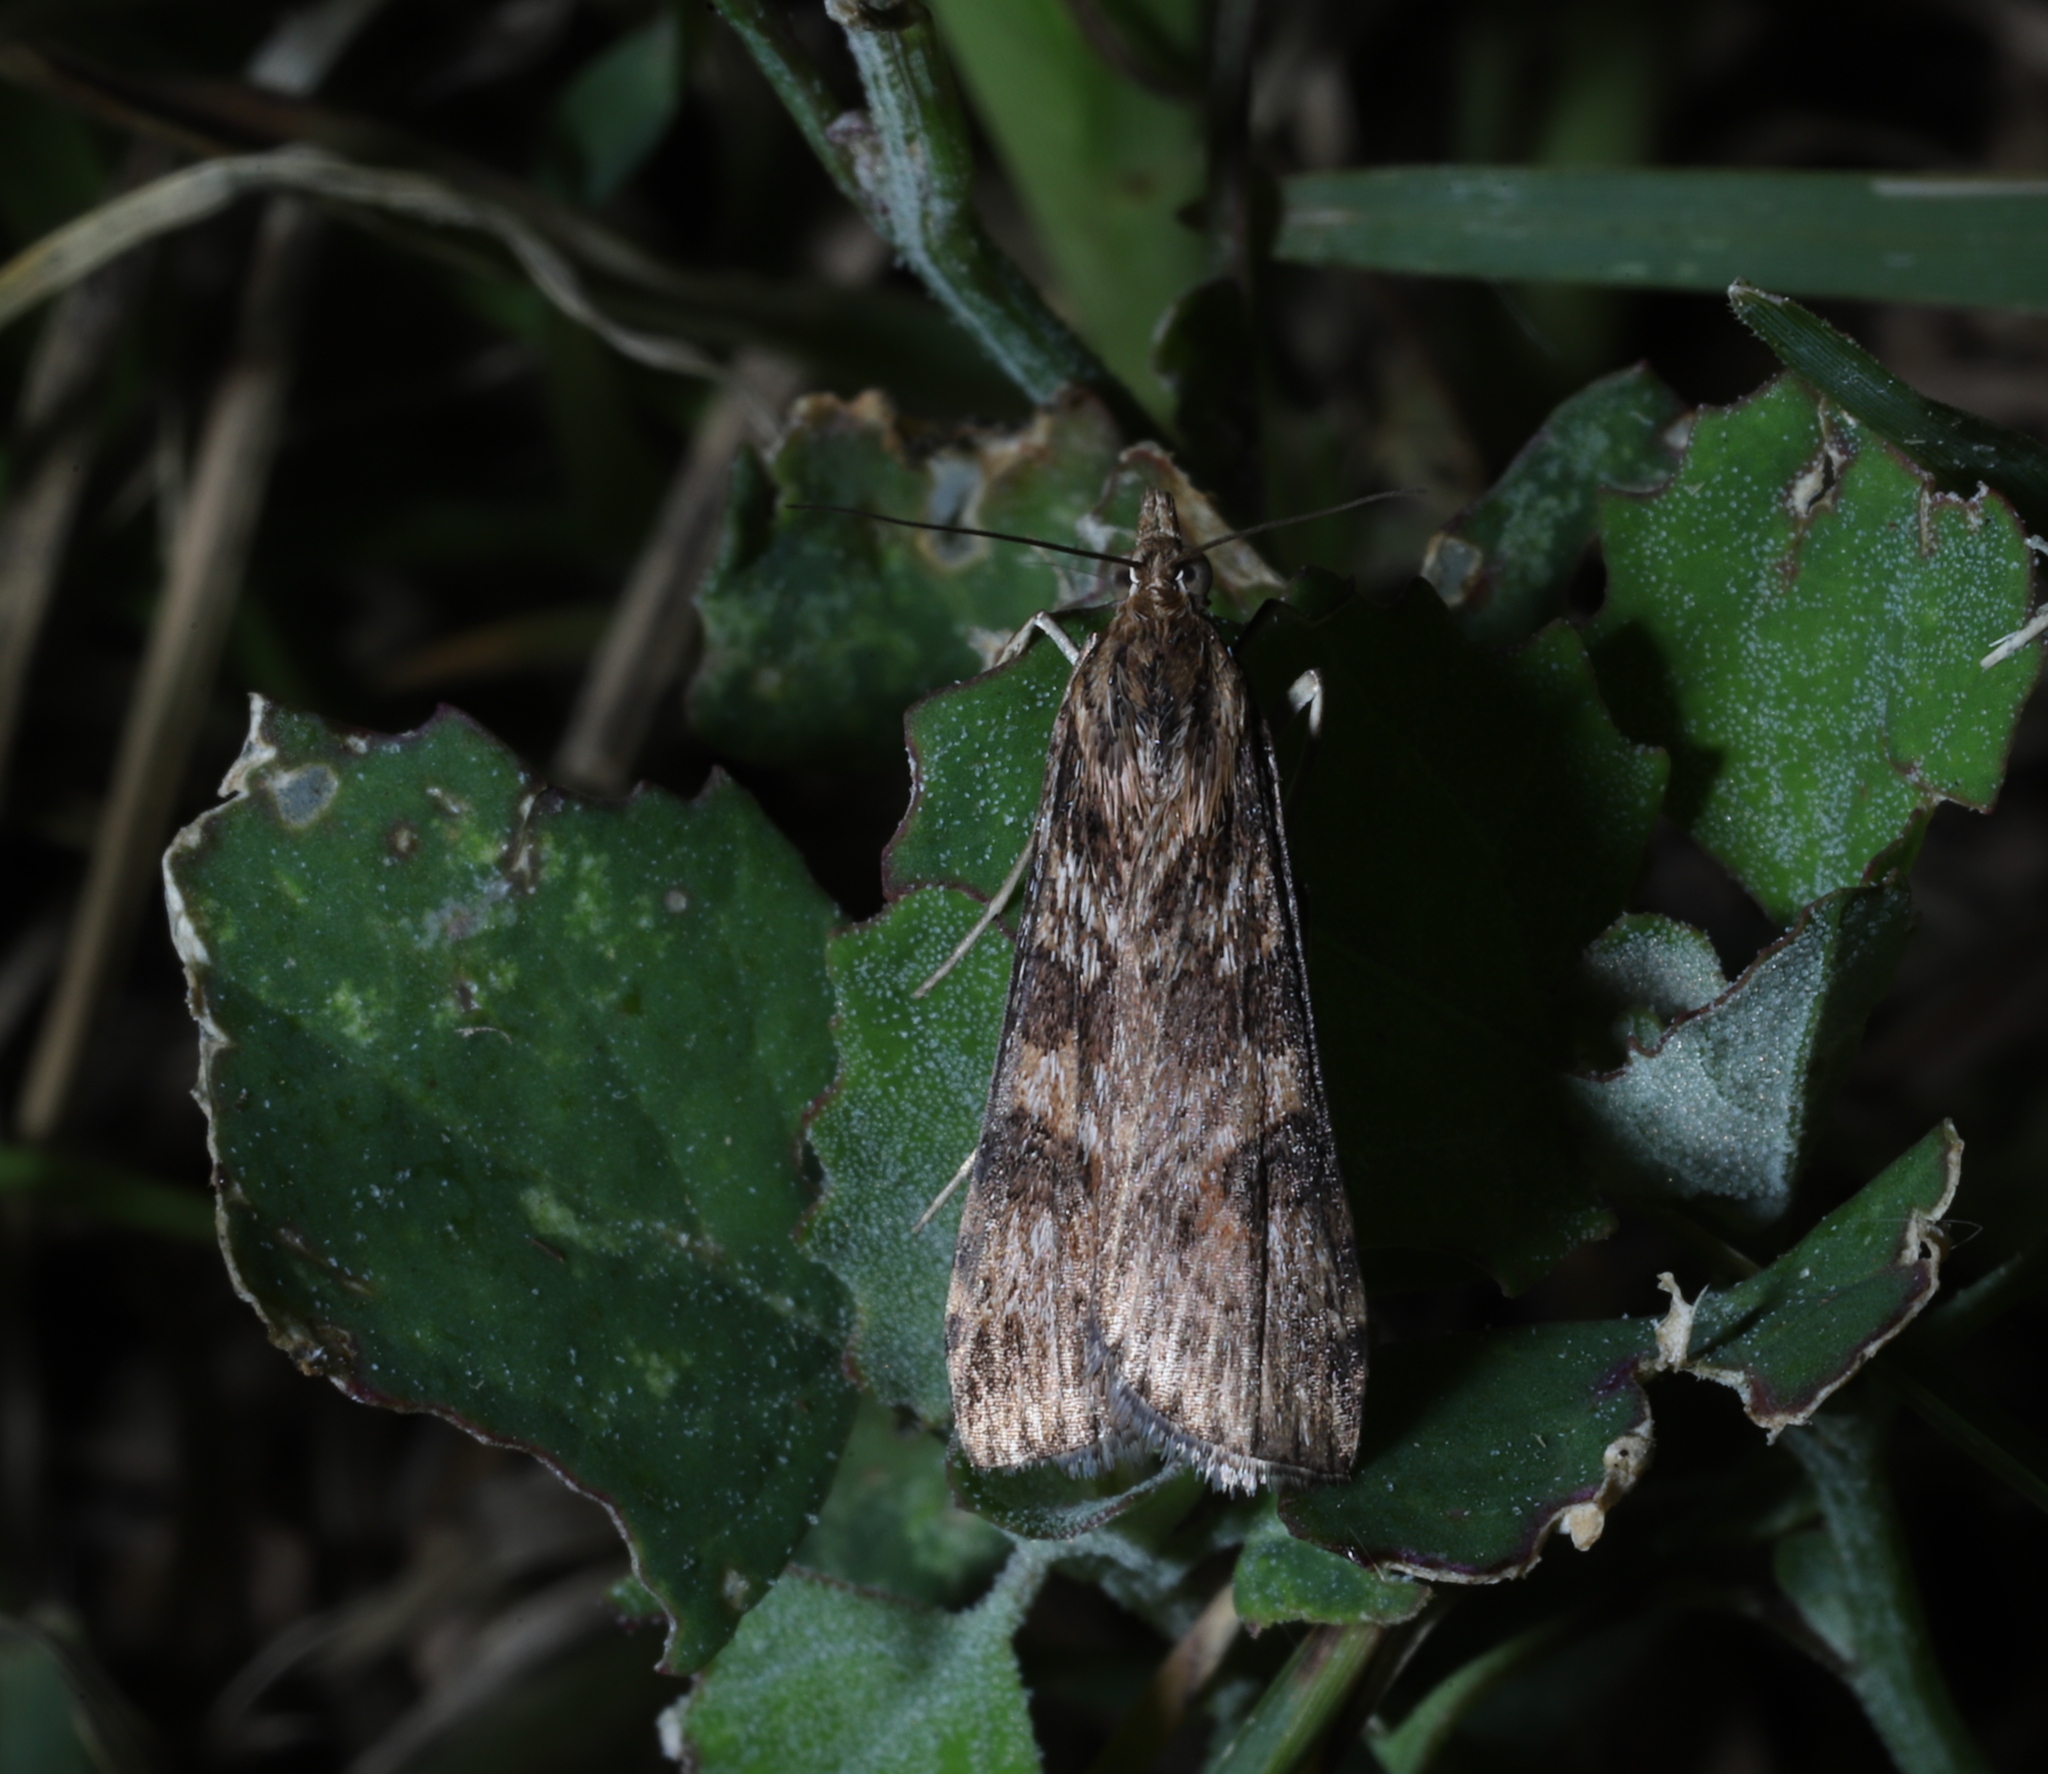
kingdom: Animalia
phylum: Arthropoda
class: Insecta
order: Lepidoptera
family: Crambidae
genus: Nomophila
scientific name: Nomophila nearctica
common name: American rush veneer
